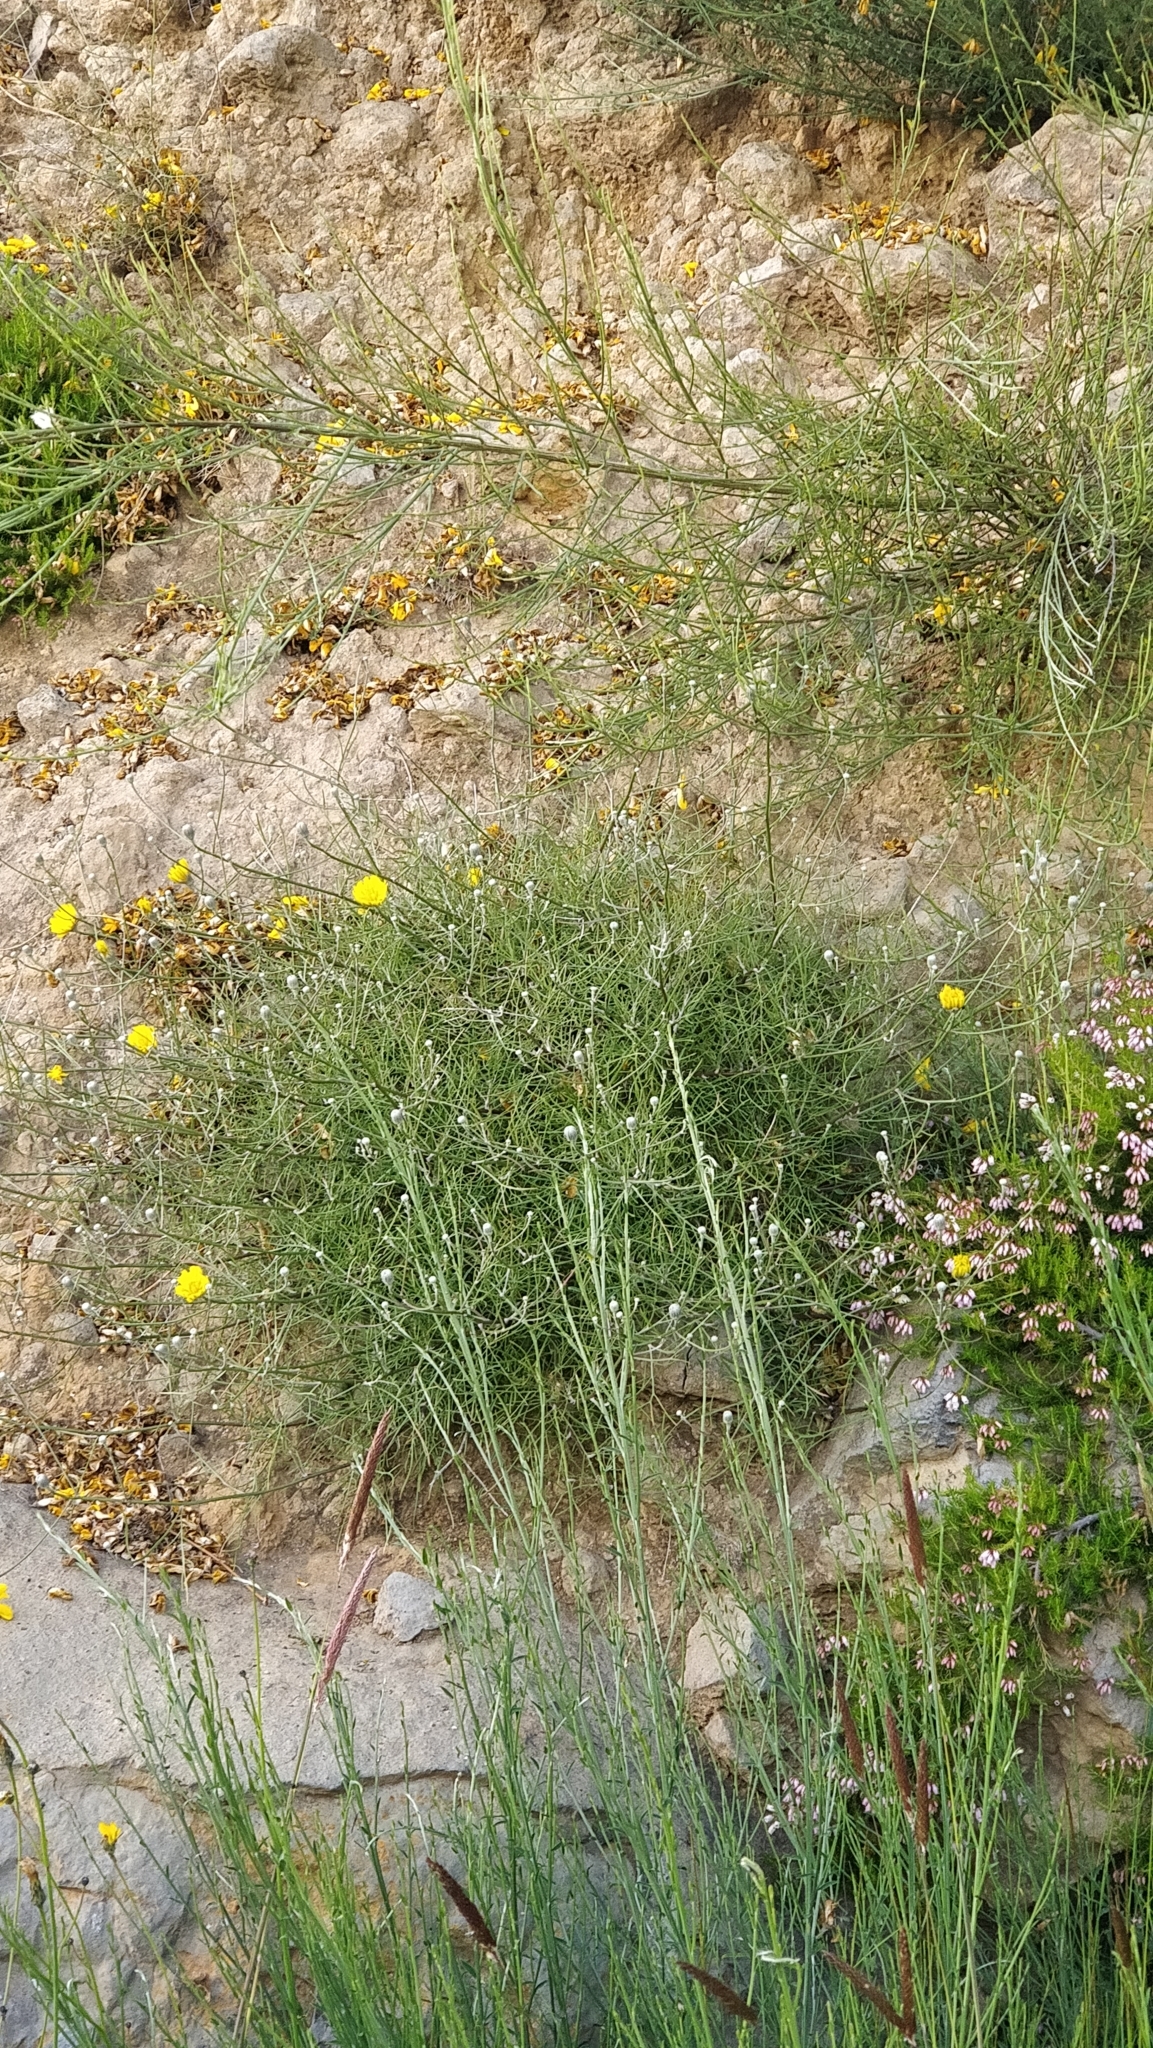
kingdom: Plantae
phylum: Tracheophyta
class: Magnoliopsida
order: Asterales
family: Asteraceae
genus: Tolpis
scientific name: Tolpis succulenta
